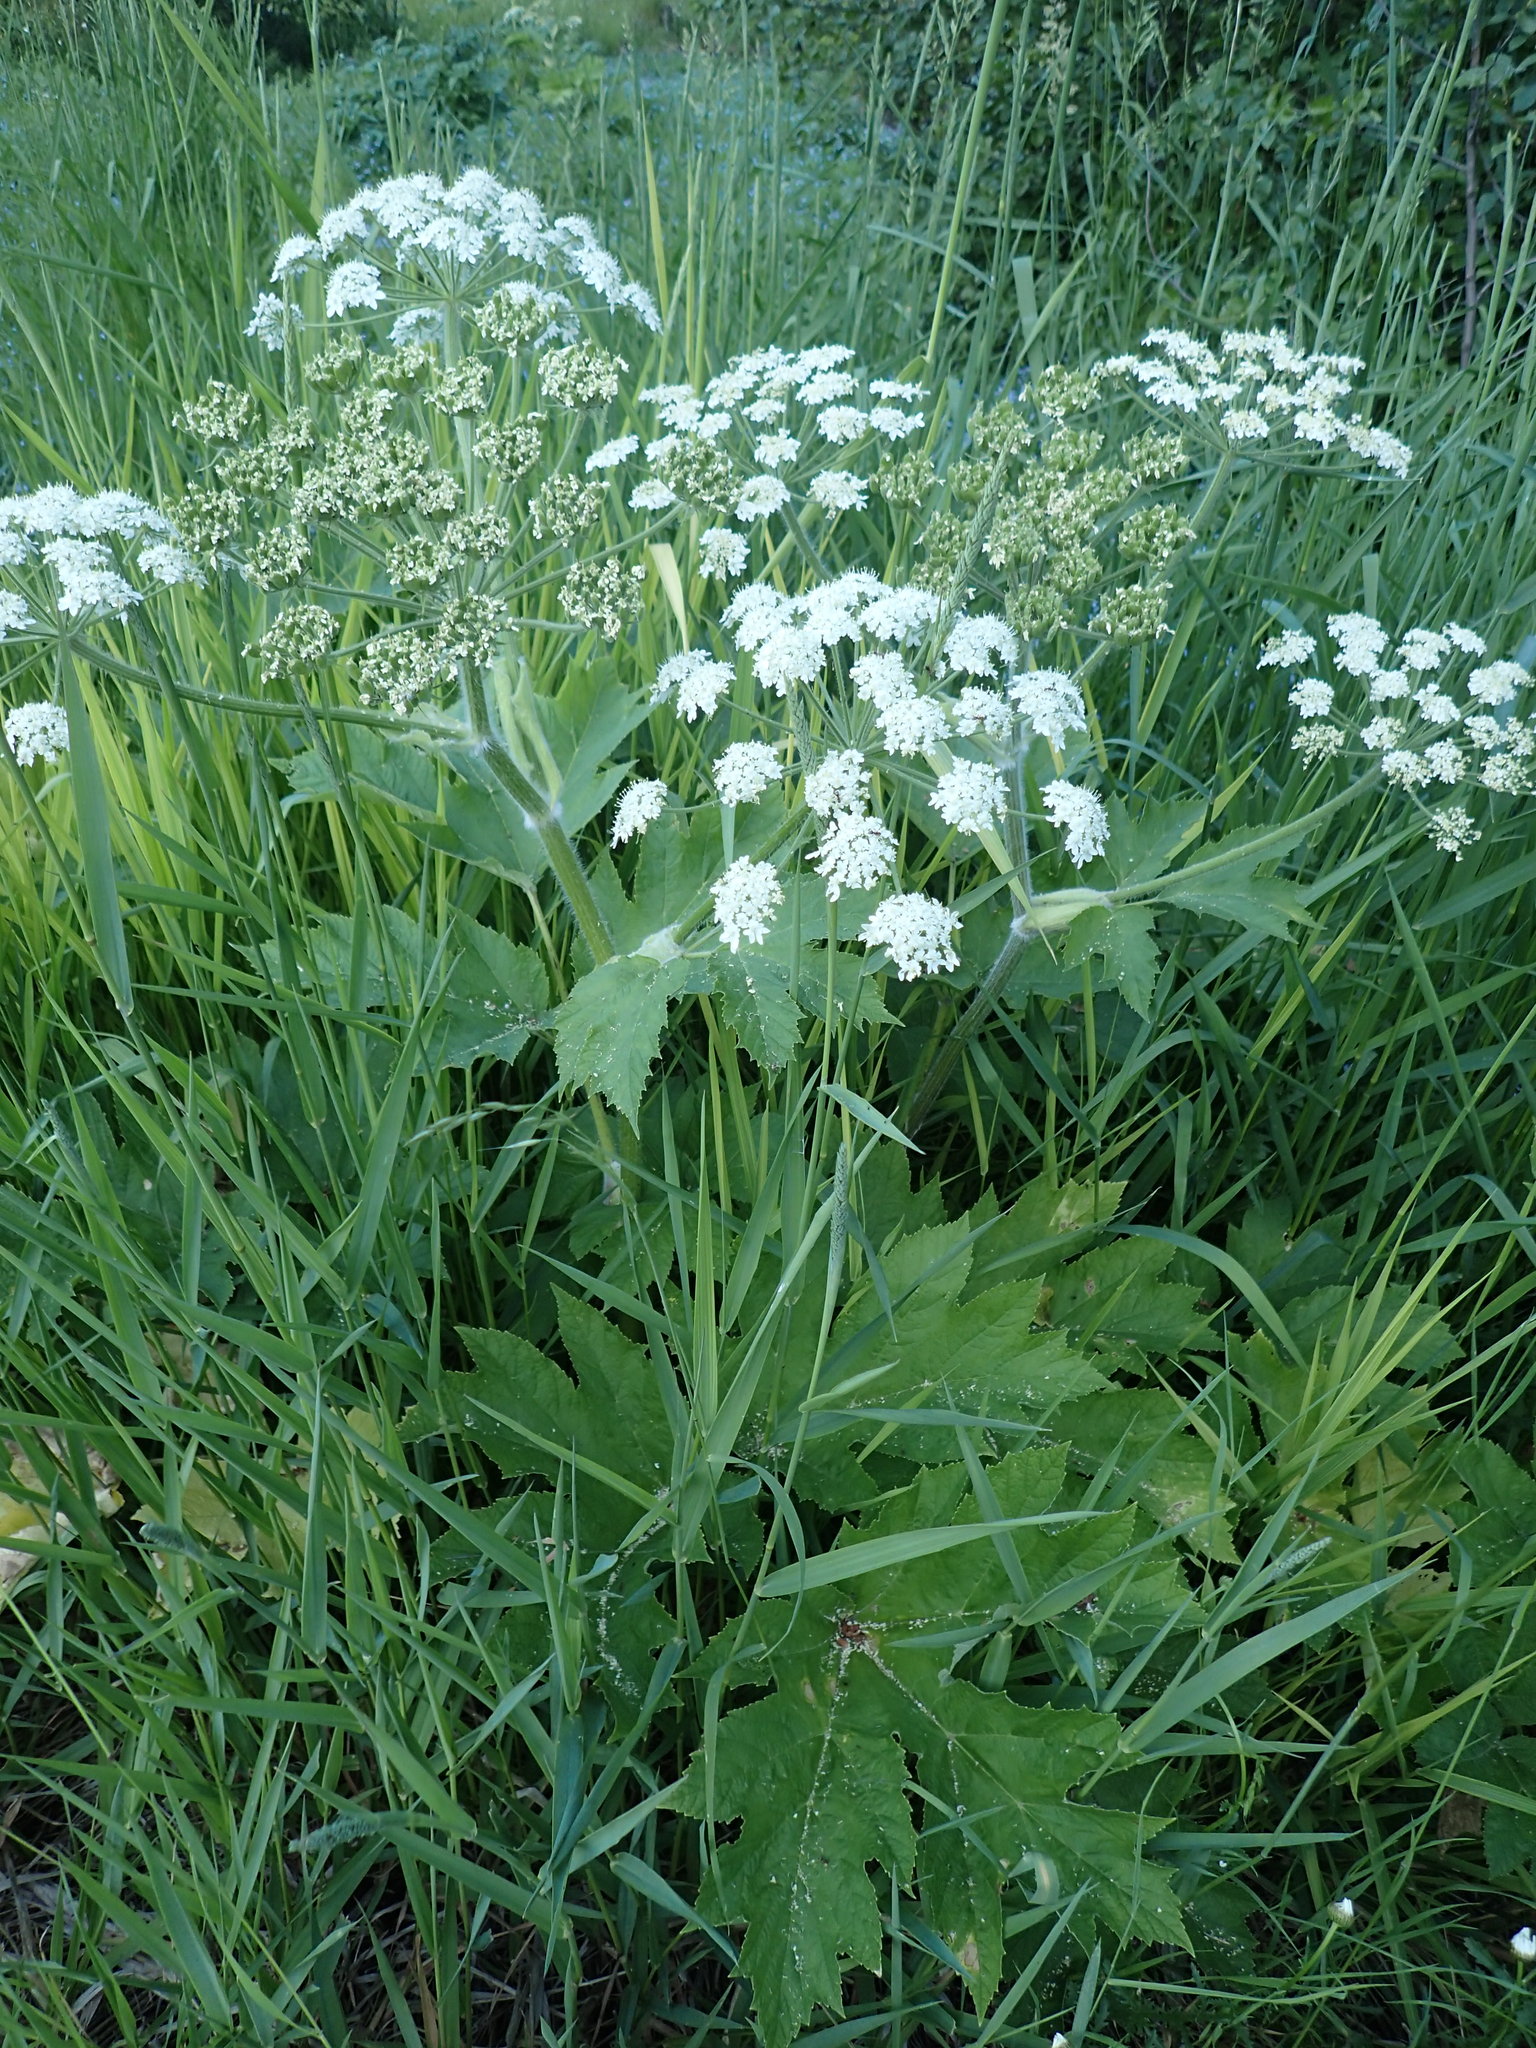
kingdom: Plantae
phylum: Tracheophyta
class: Magnoliopsida
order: Apiales
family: Apiaceae
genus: Heracleum
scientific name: Heracleum maximum
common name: American cow parsnip
